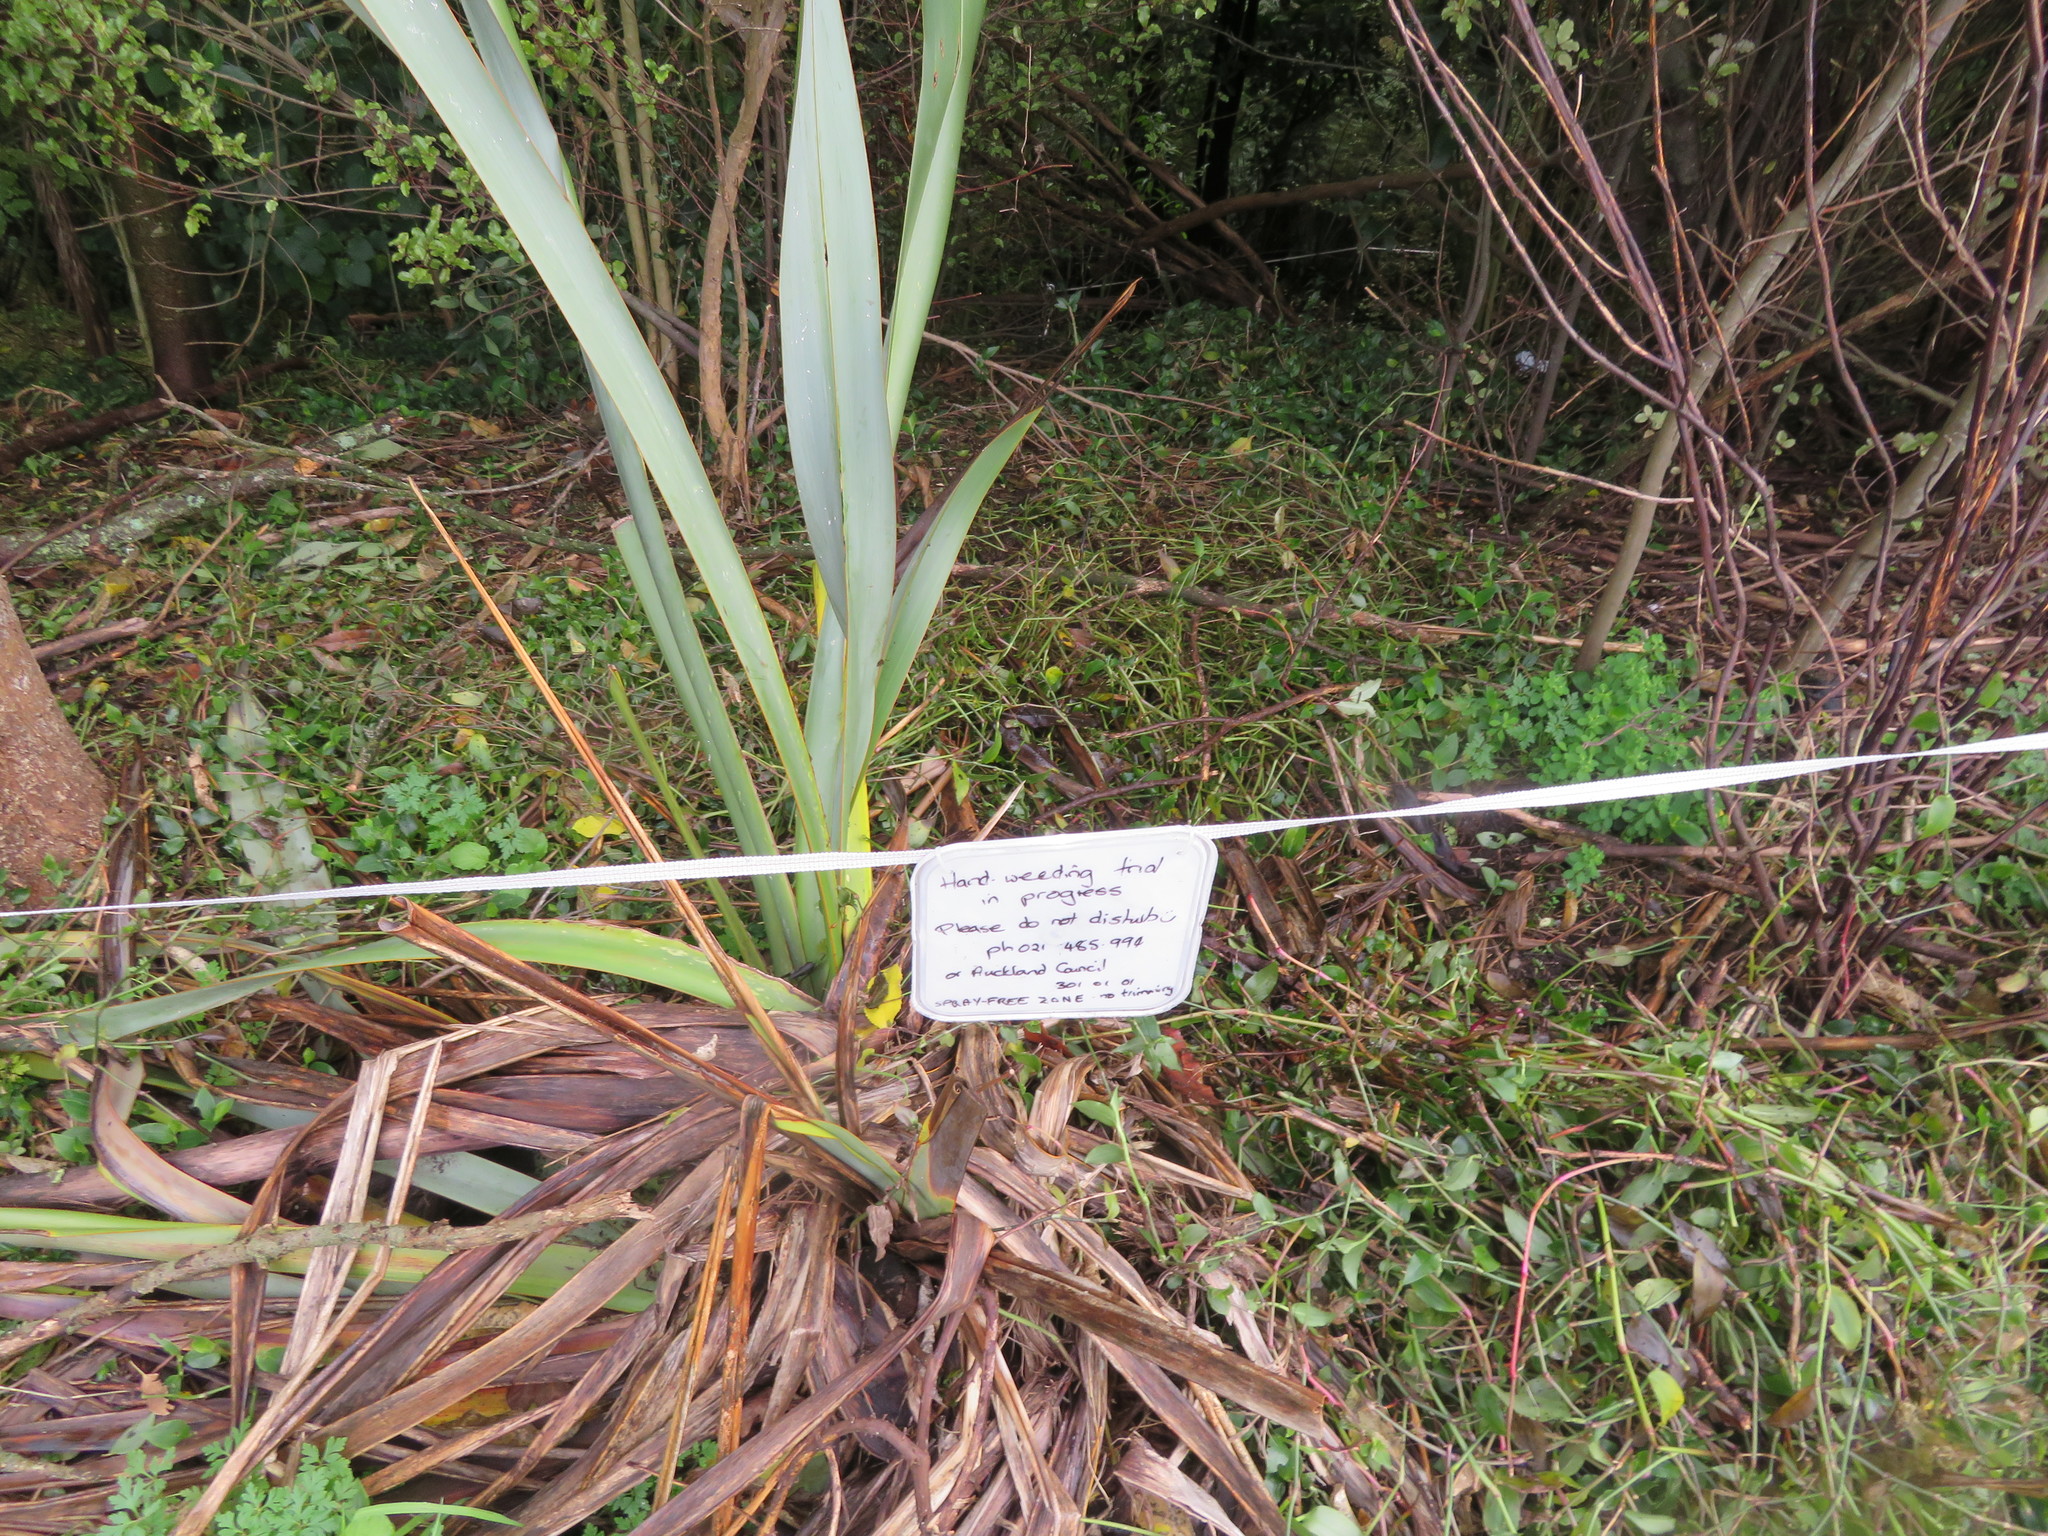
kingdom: Plantae
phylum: Tracheophyta
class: Liliopsida
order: Asparagales
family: Asphodelaceae
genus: Phormium
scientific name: Phormium tenax
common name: New zealand flax
